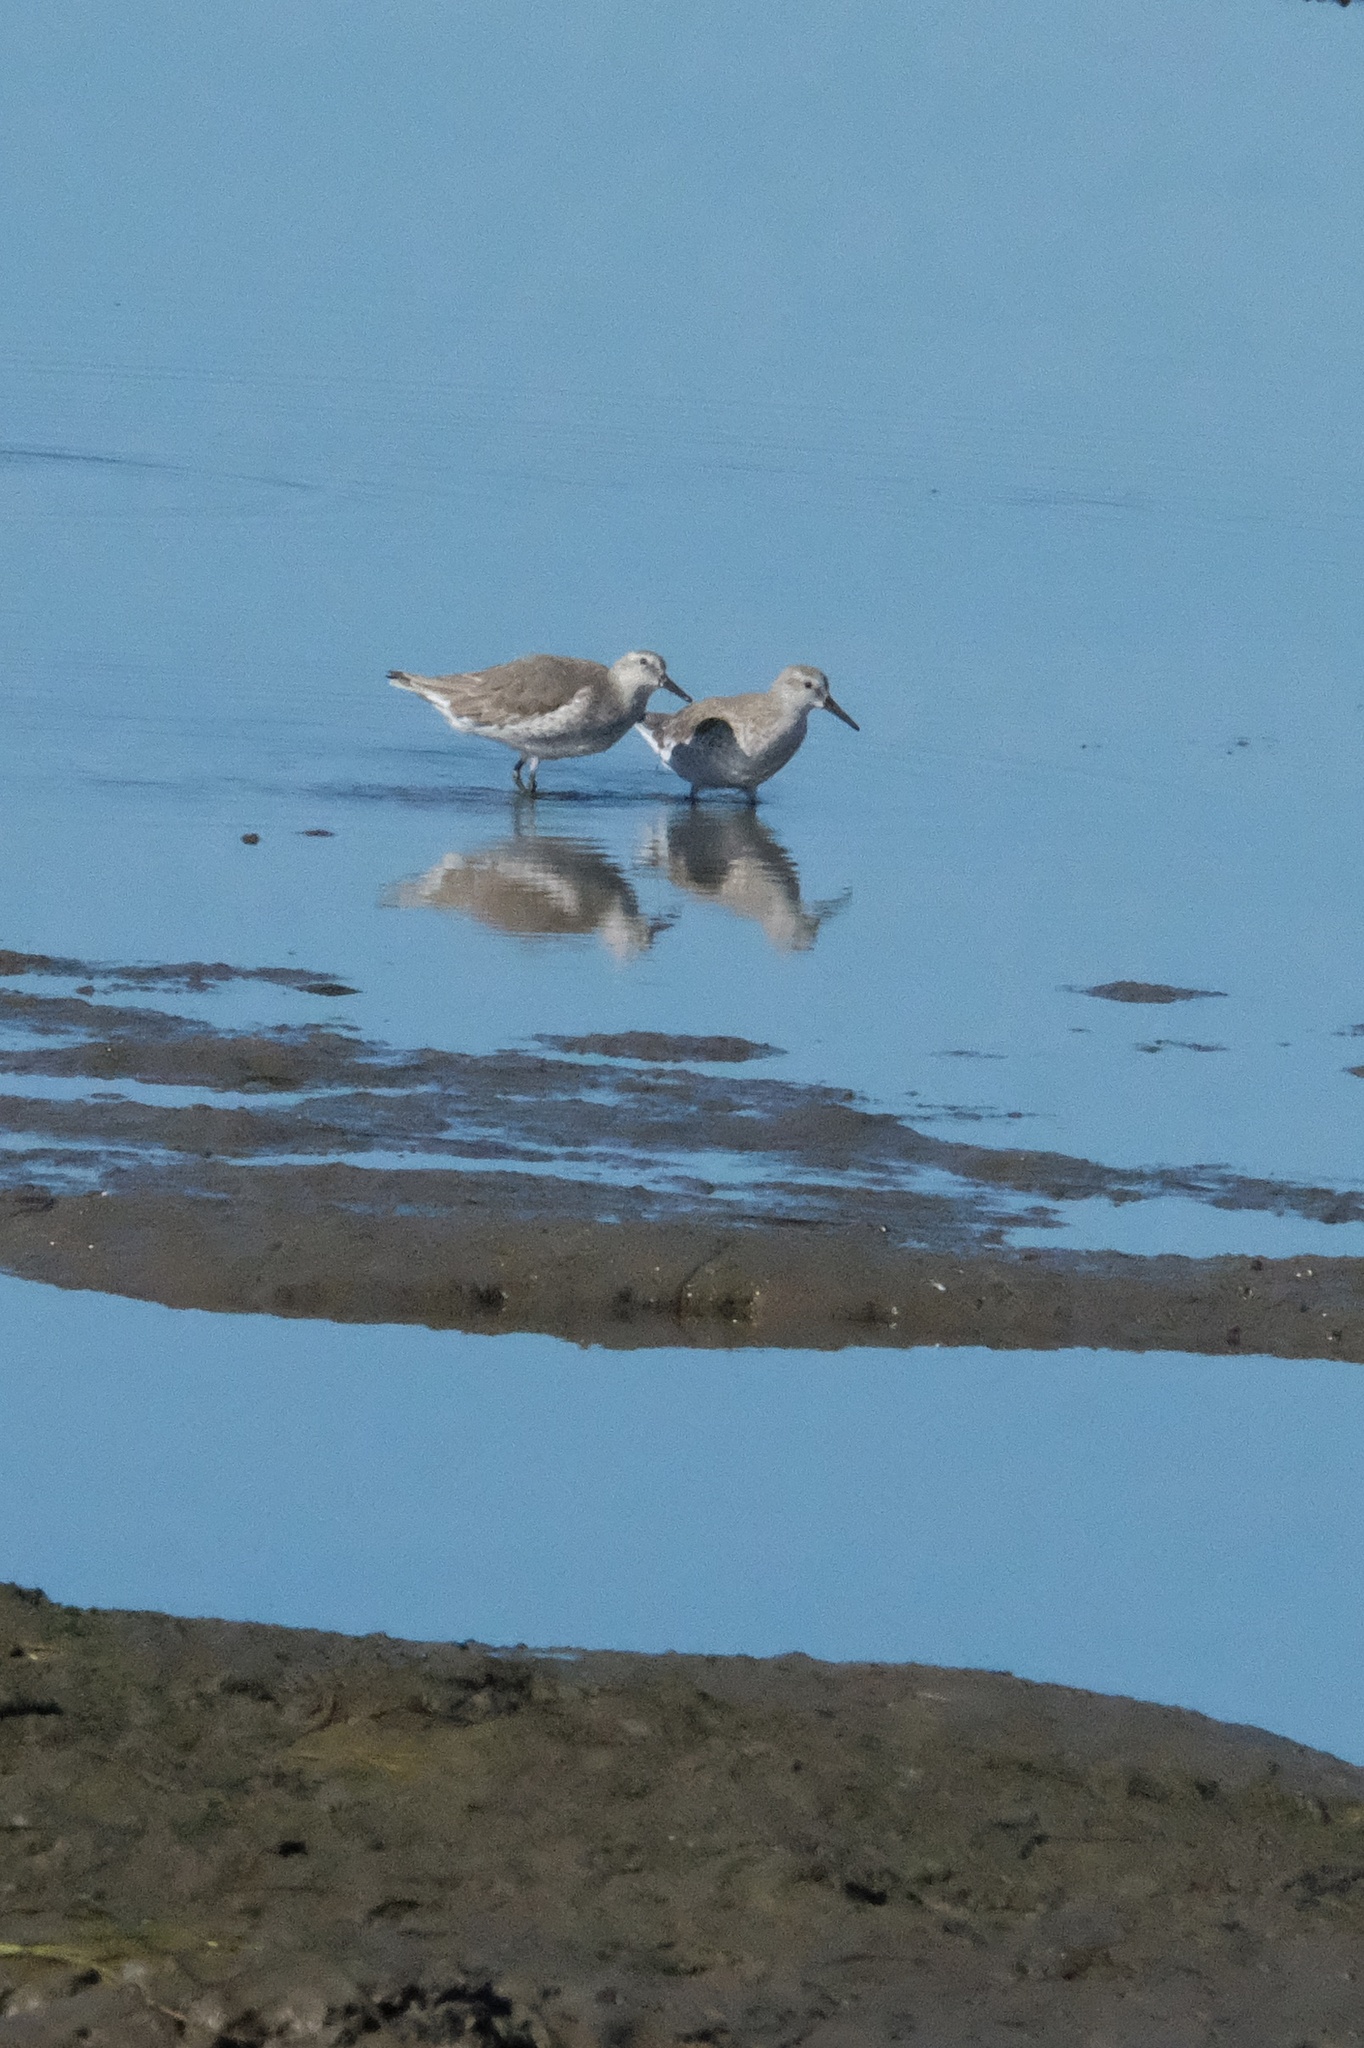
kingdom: Animalia
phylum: Chordata
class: Aves
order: Charadriiformes
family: Scolopacidae
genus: Calidris
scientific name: Calidris canutus
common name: Red knot
